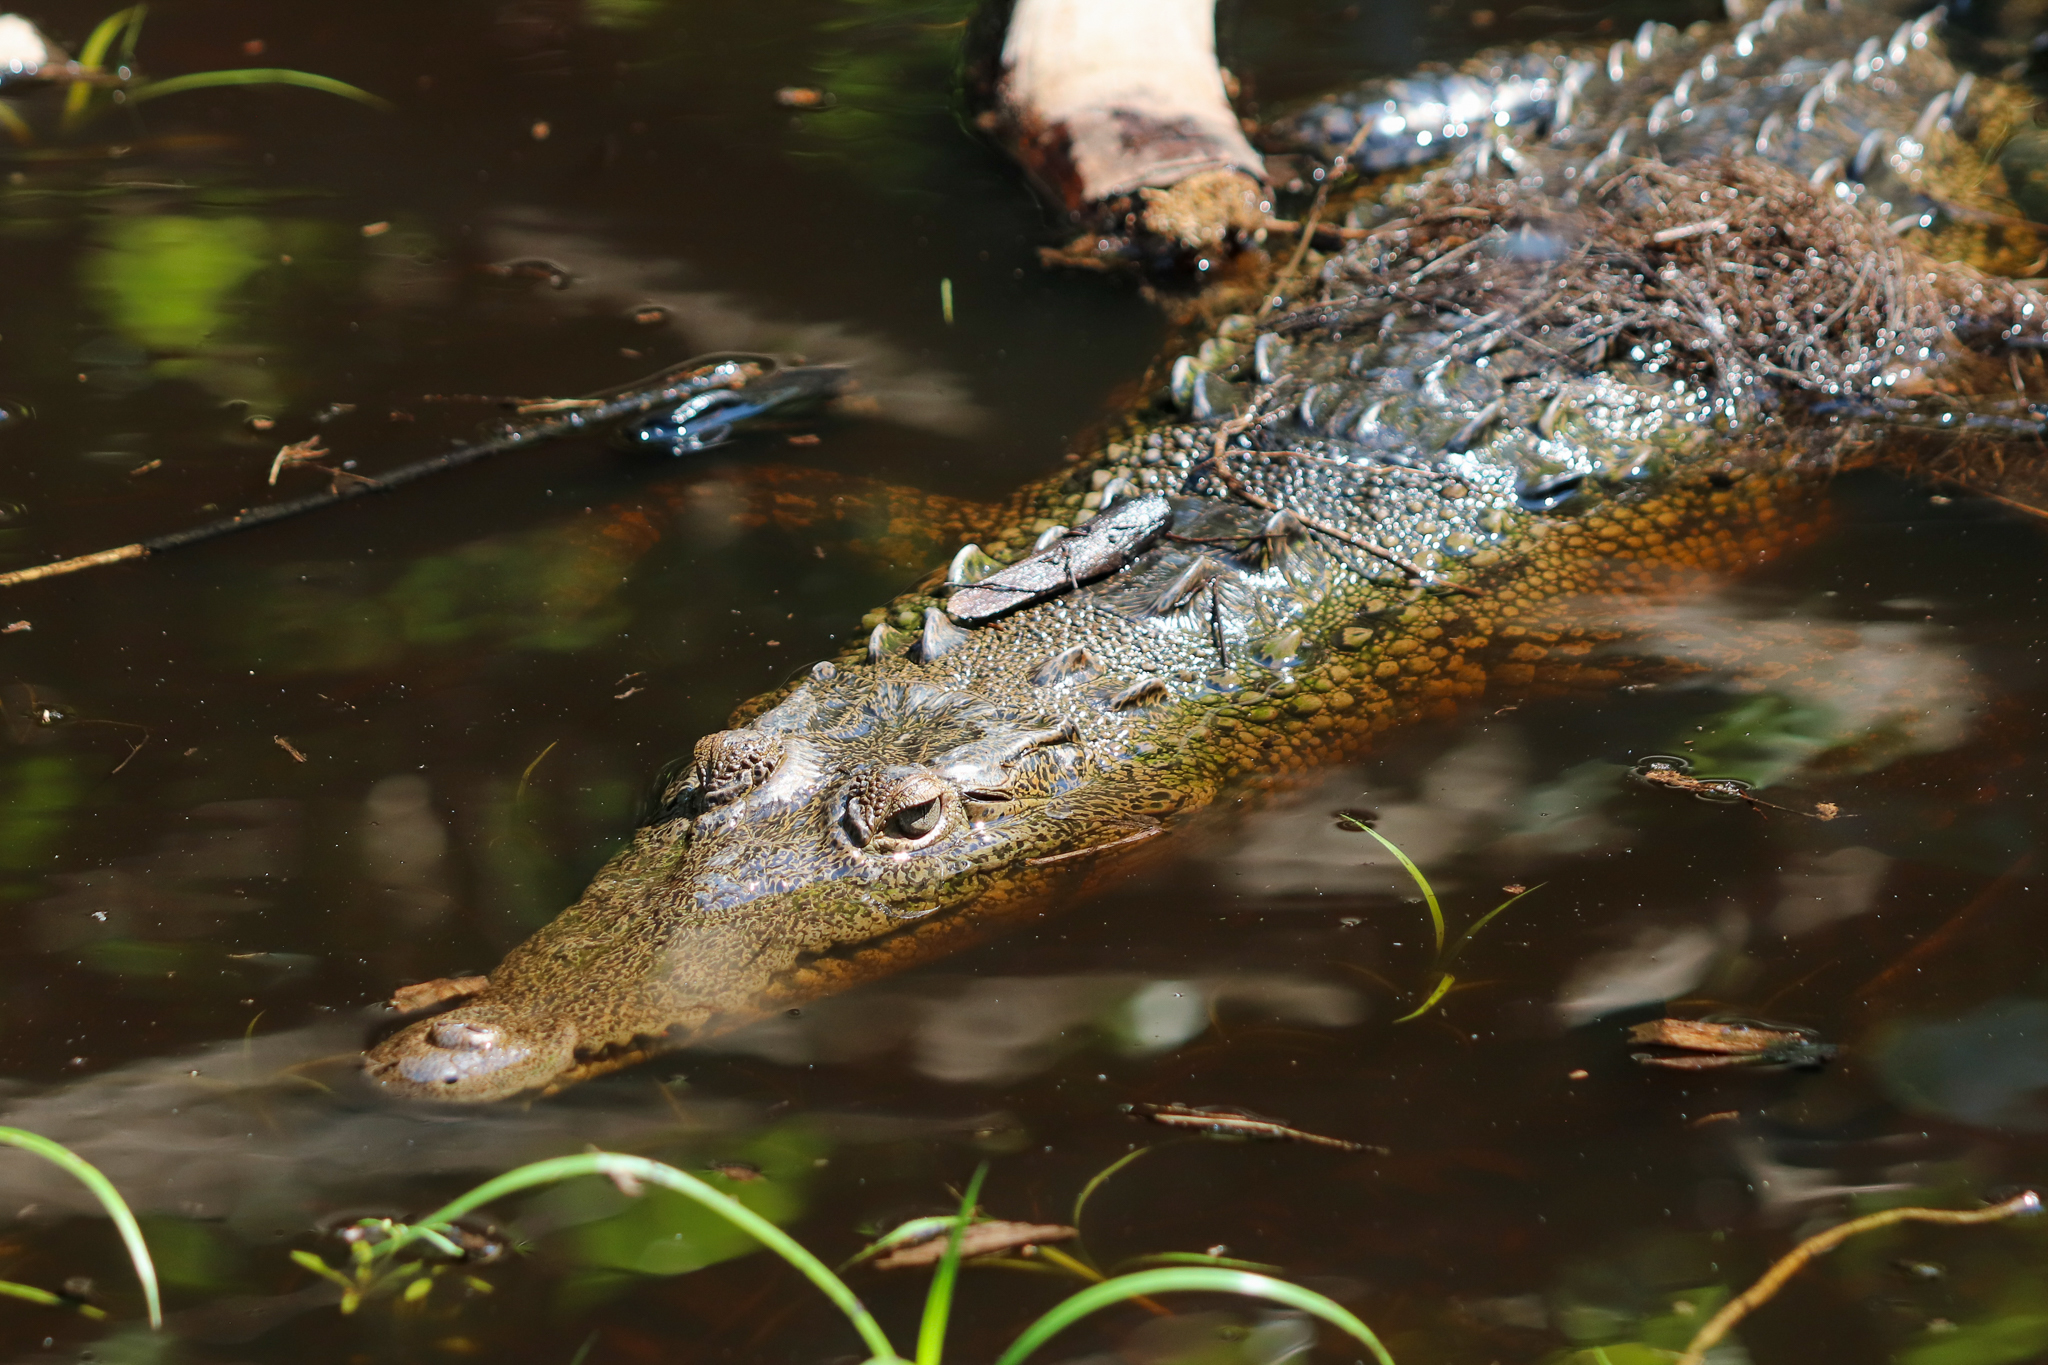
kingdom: Animalia
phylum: Chordata
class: Crocodylia
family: Crocodylidae
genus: Crocodylus
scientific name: Crocodylus acutus
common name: American crocodile
